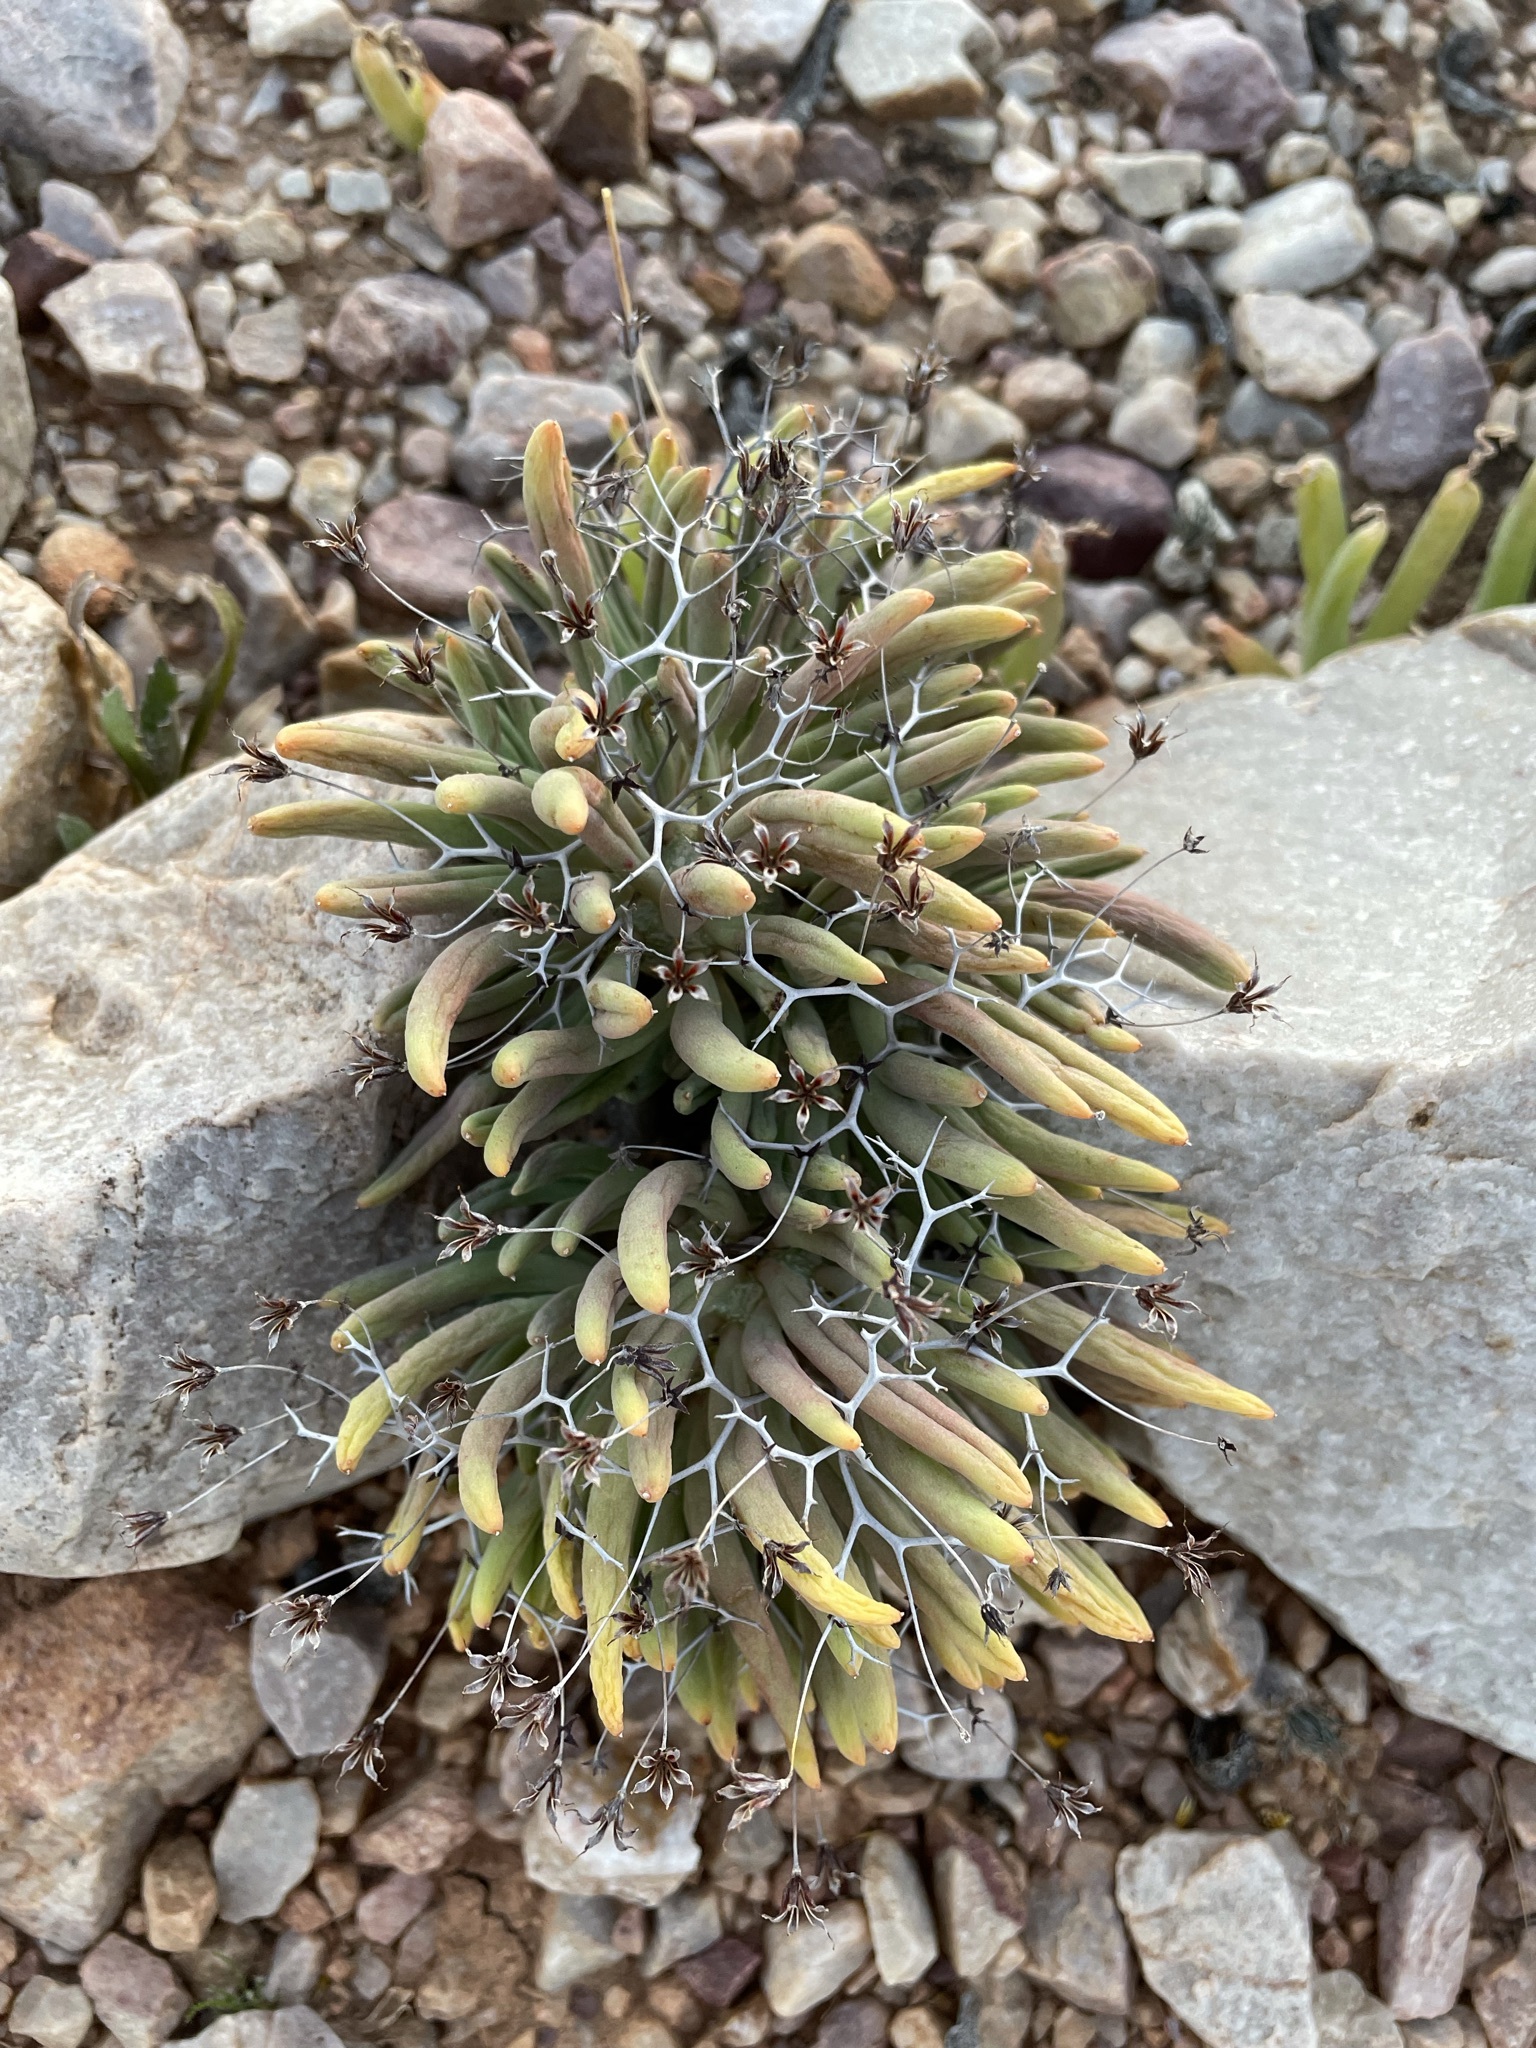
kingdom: Plantae
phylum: Tracheophyta
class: Magnoliopsida
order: Saxifragales
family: Crassulaceae
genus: Tylecodon
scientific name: Tylecodon reticulatus
